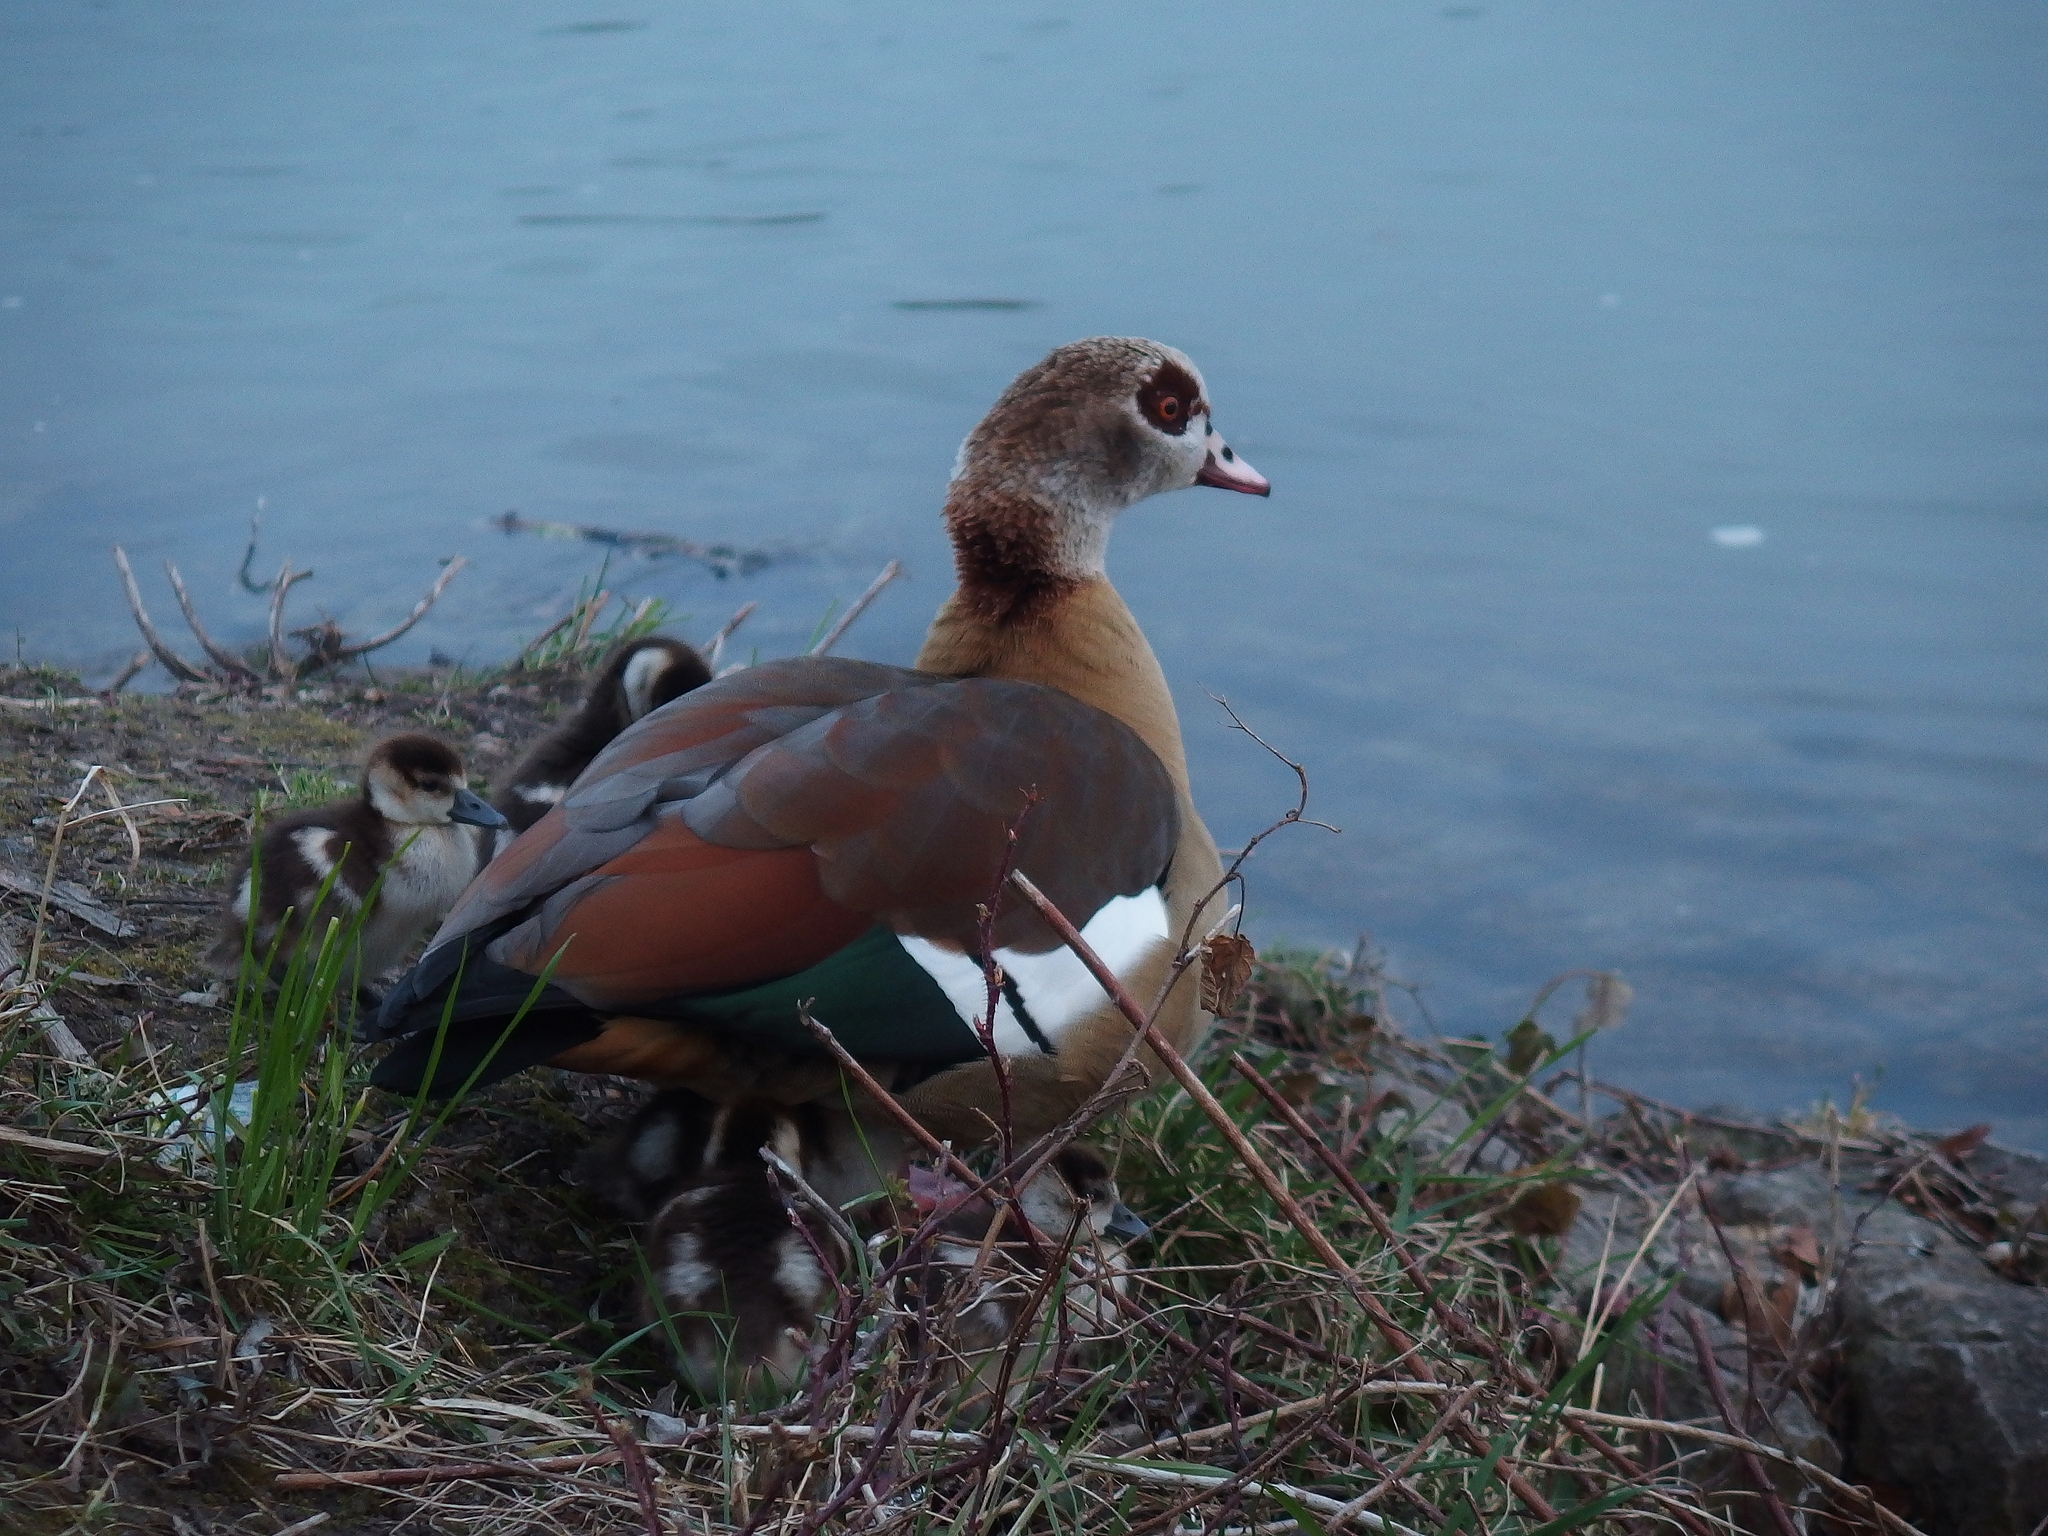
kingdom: Animalia
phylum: Chordata
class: Aves
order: Anseriformes
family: Anatidae
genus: Alopochen
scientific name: Alopochen aegyptiaca
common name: Egyptian goose
